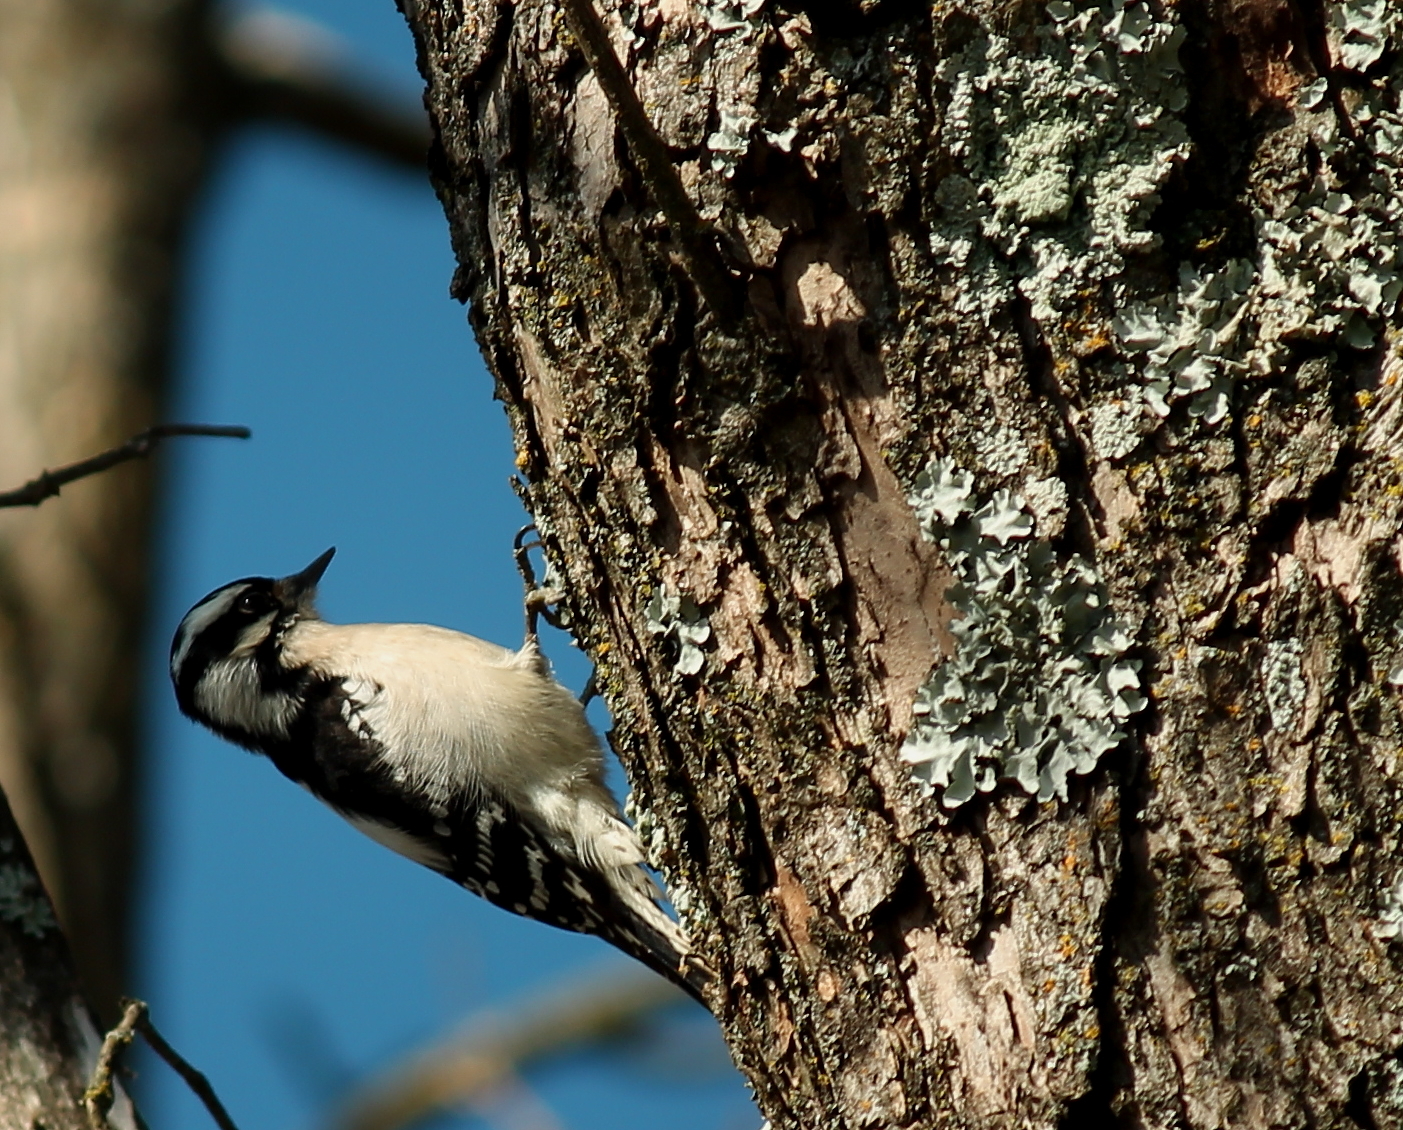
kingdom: Animalia
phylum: Chordata
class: Aves
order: Piciformes
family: Picidae
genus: Dryobates
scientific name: Dryobates pubescens
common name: Downy woodpecker
